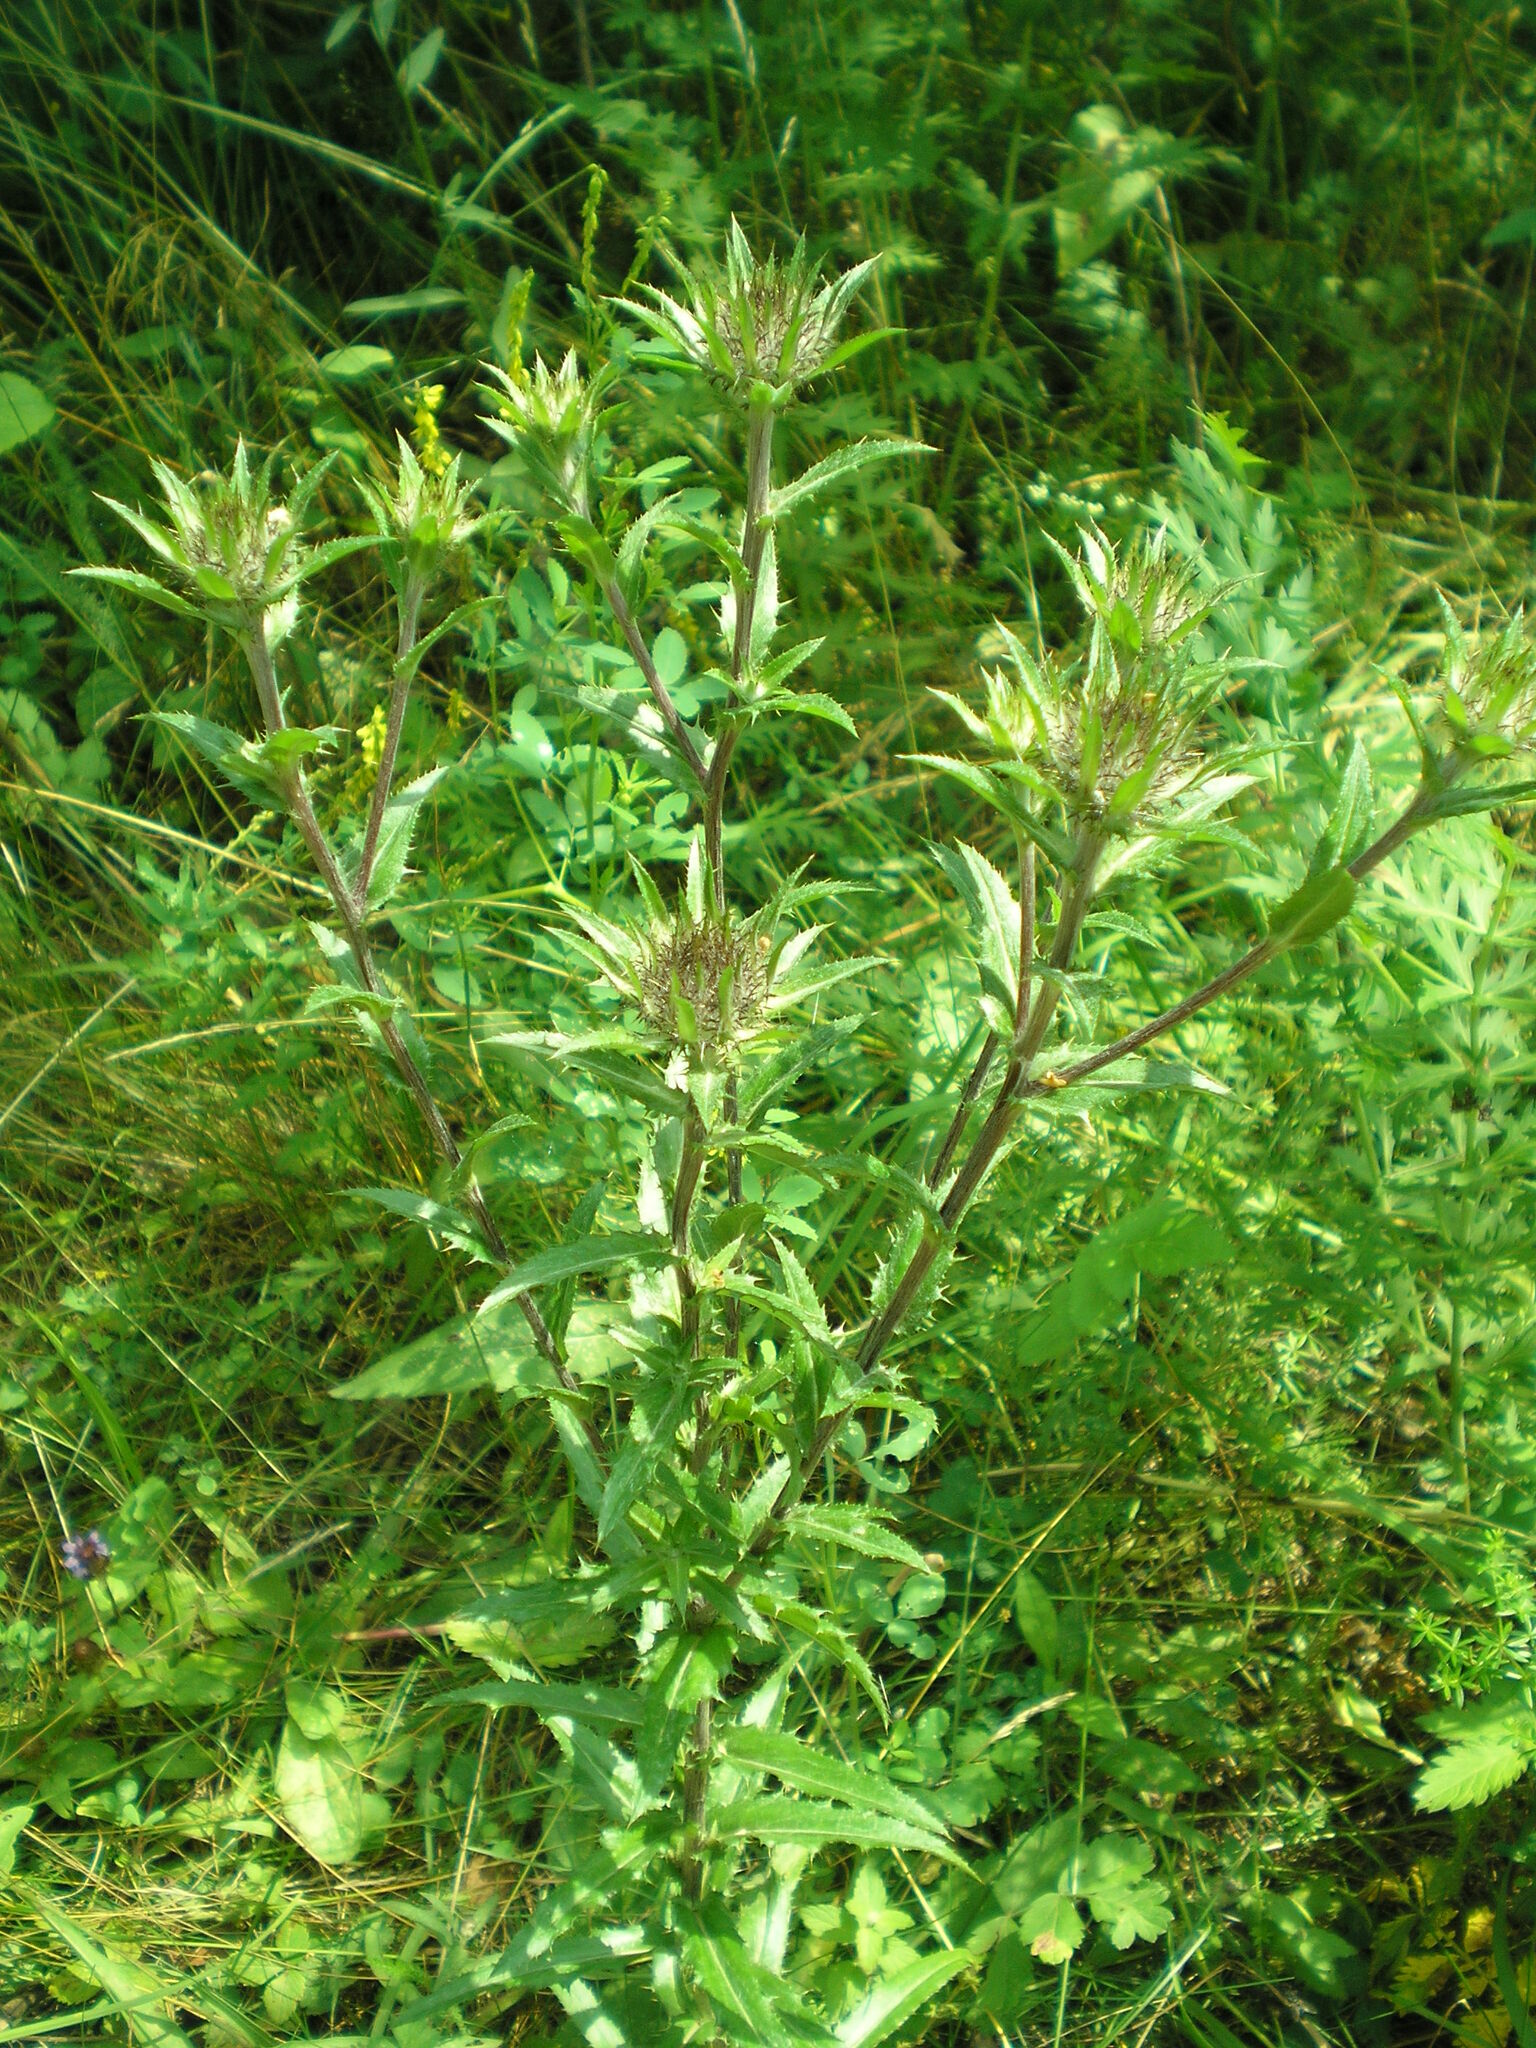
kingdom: Plantae
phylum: Tracheophyta
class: Magnoliopsida
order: Asterales
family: Asteraceae
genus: Carlina
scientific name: Carlina biebersteinii
